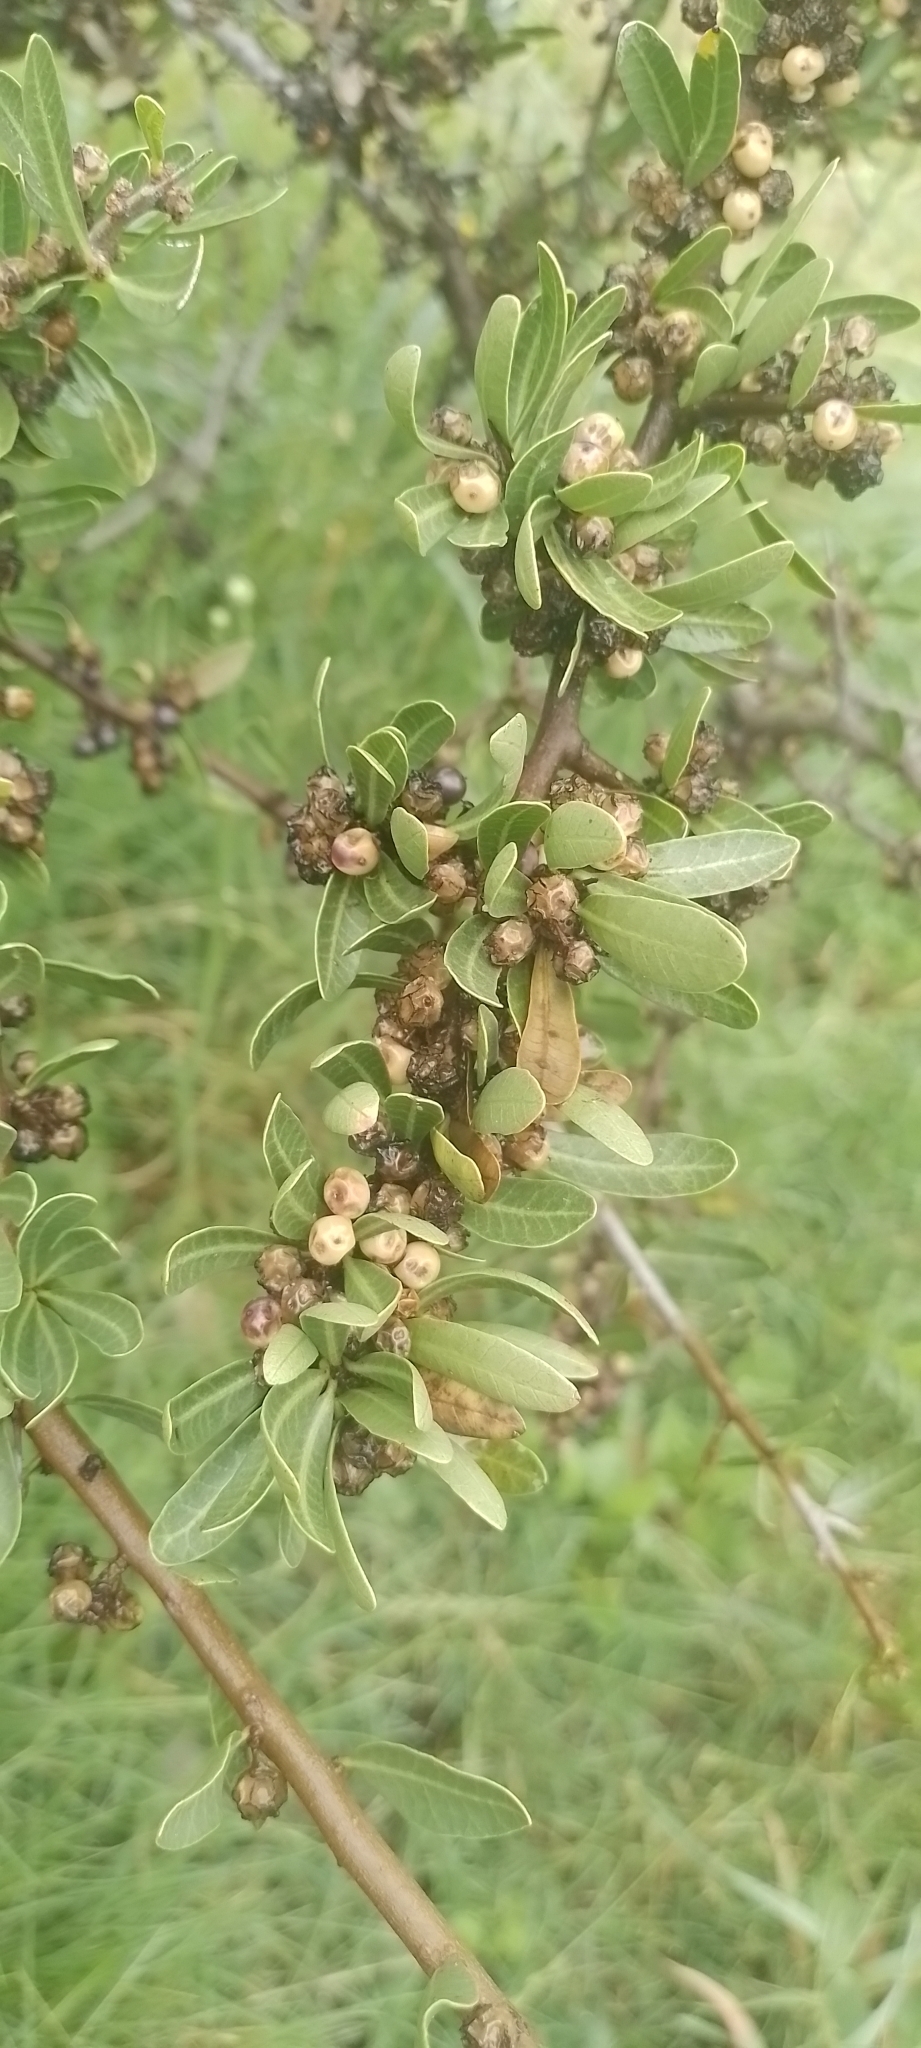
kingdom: Plantae
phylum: Tracheophyta
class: Magnoliopsida
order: Sapindales
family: Anacardiaceae
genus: Schinus
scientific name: Schinus engleri
